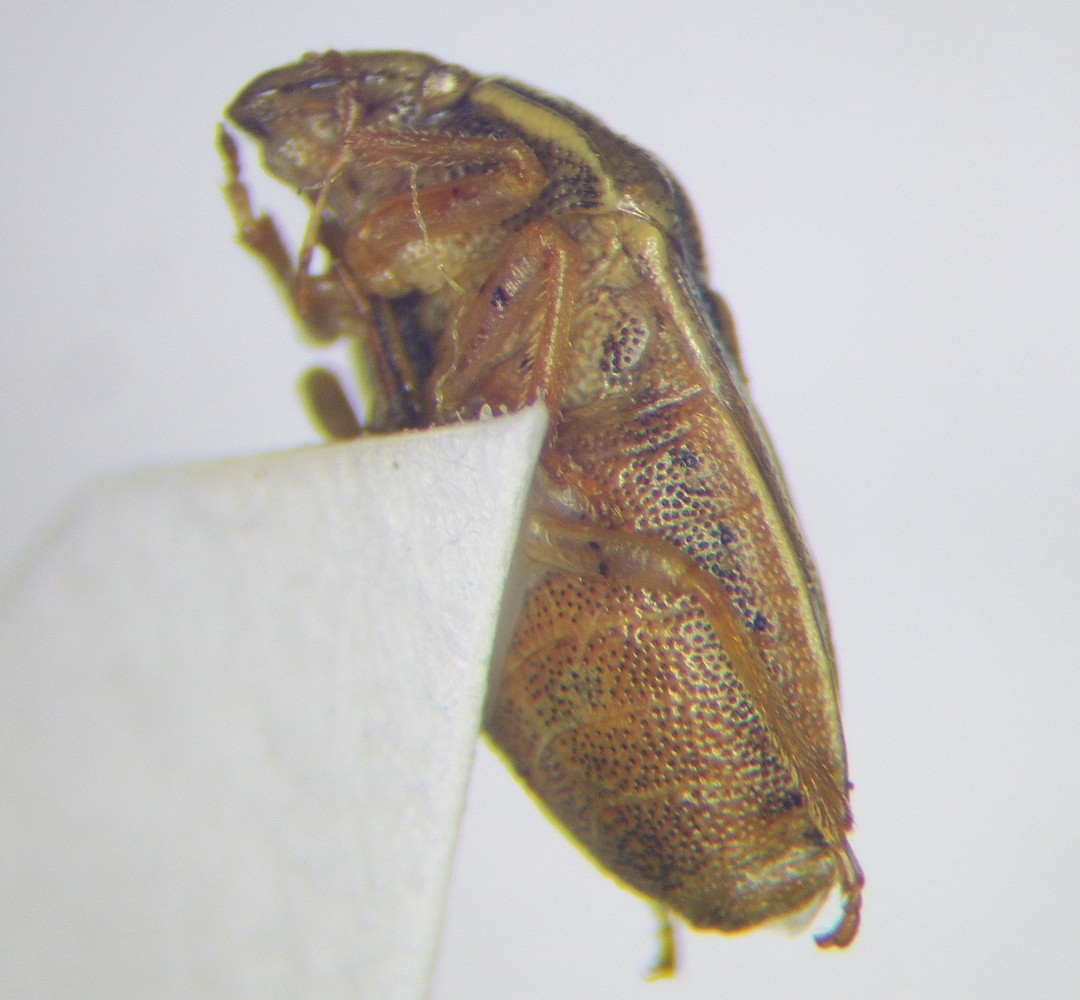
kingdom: Animalia
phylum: Arthropoda
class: Insecta
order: Hemiptera
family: Pentatomidae
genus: Neottiglossa
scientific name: Neottiglossa leporina
